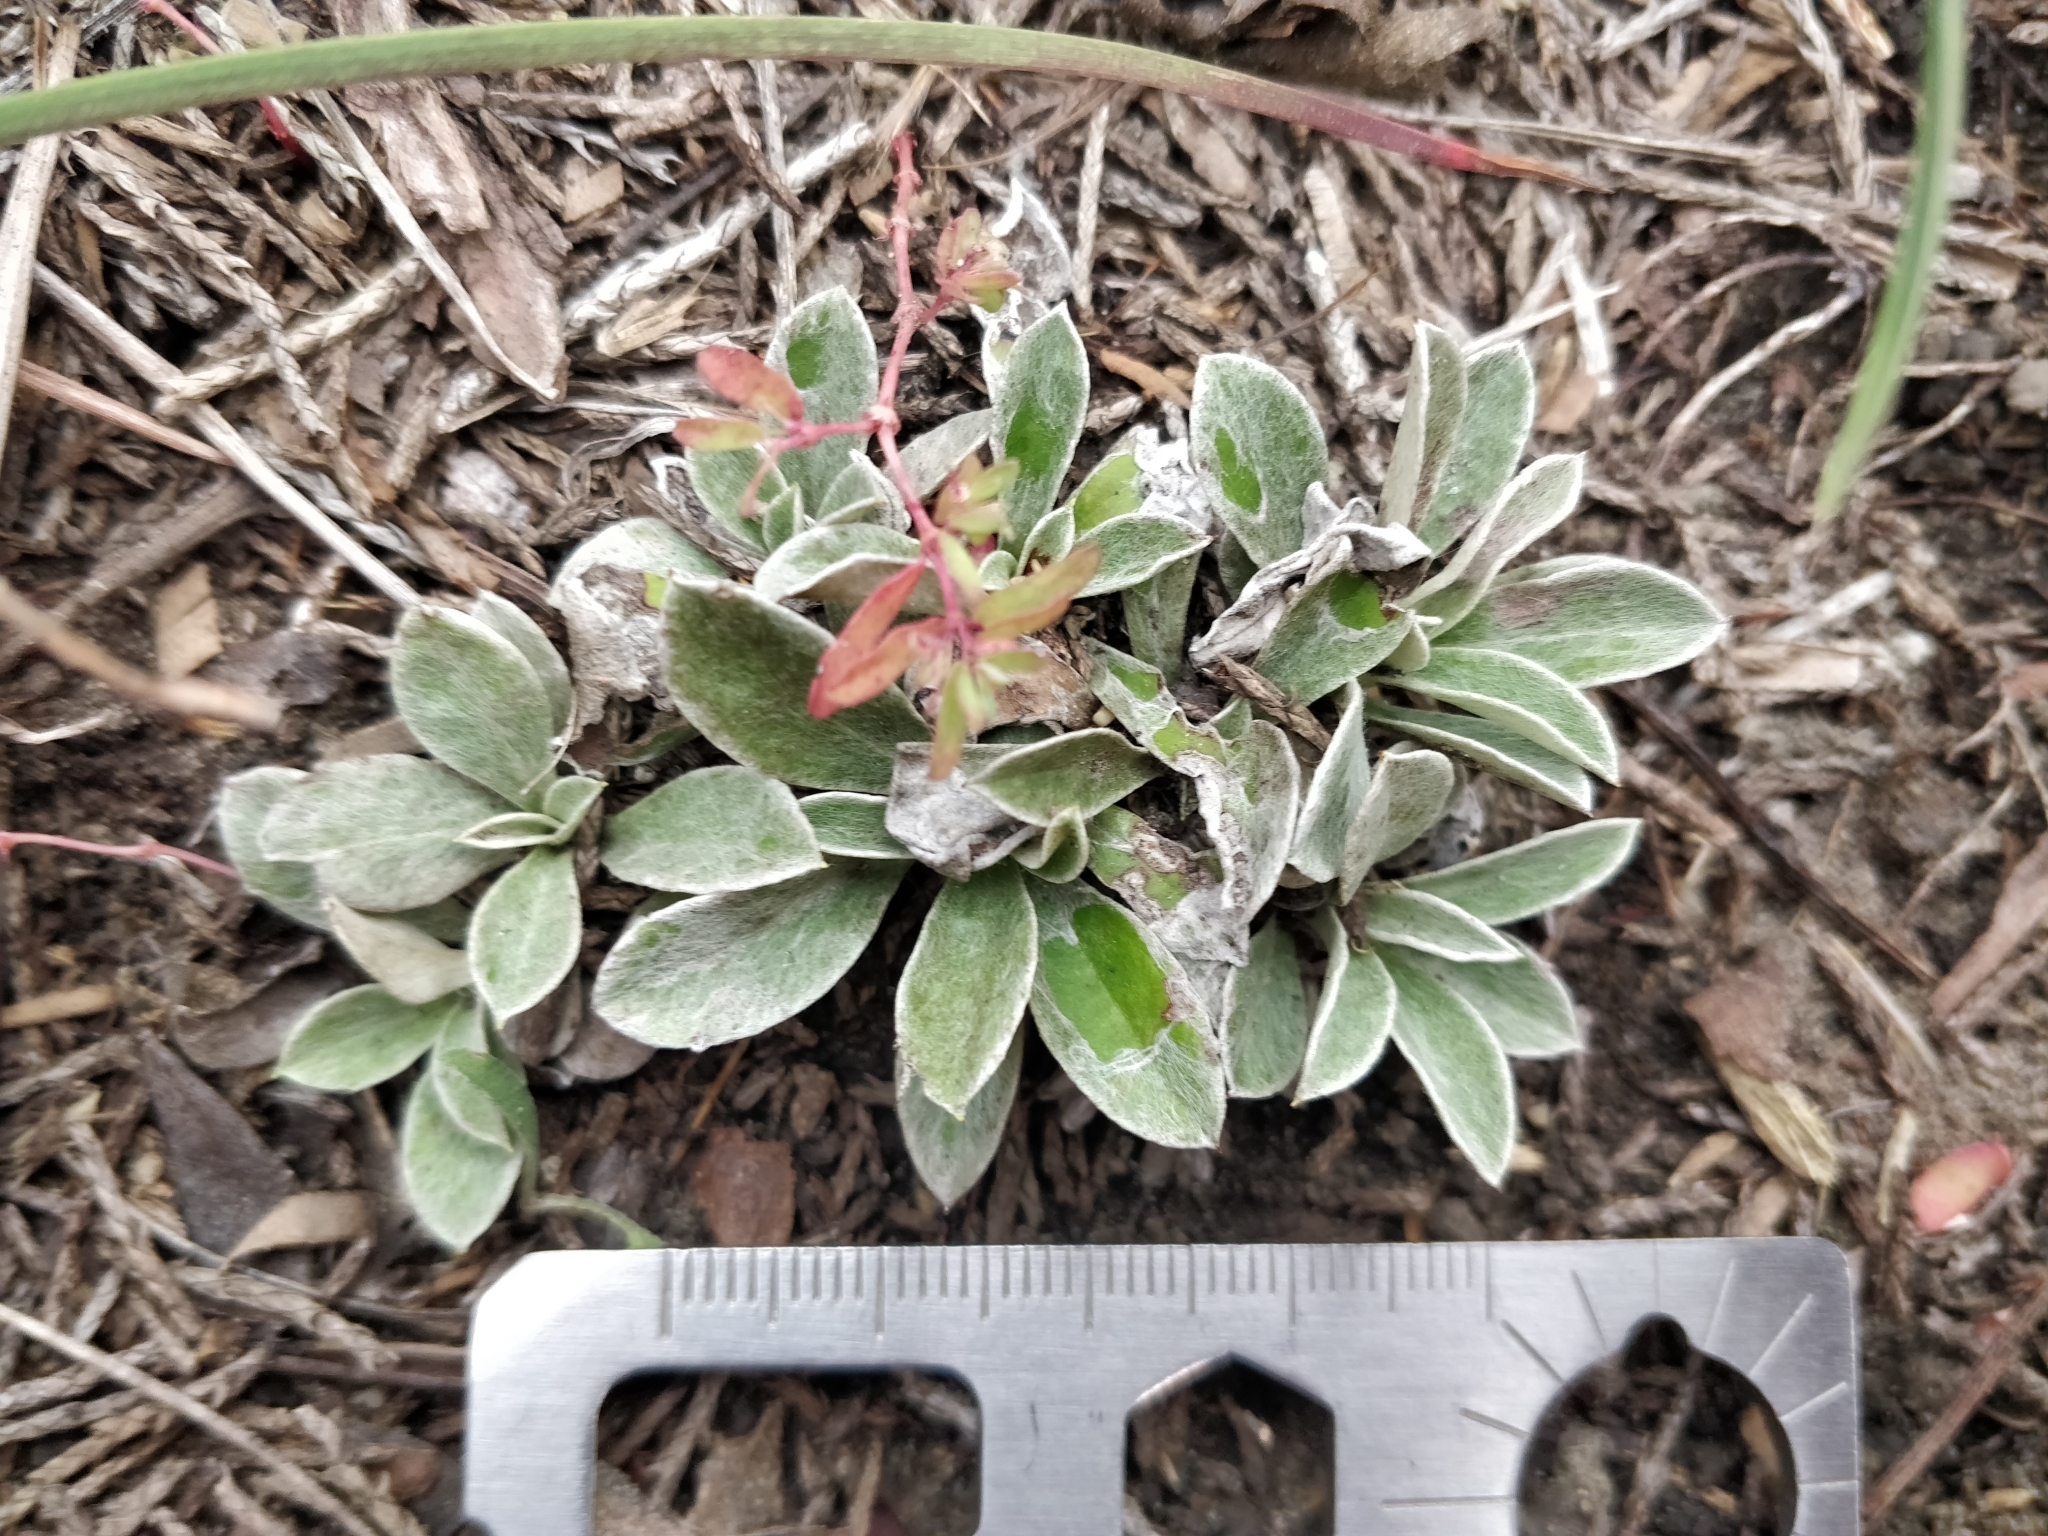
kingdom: Plantae
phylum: Tracheophyta
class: Magnoliopsida
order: Asterales
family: Asteraceae
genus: Antennaria
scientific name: Antennaria neglecta
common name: Field pussytoes
